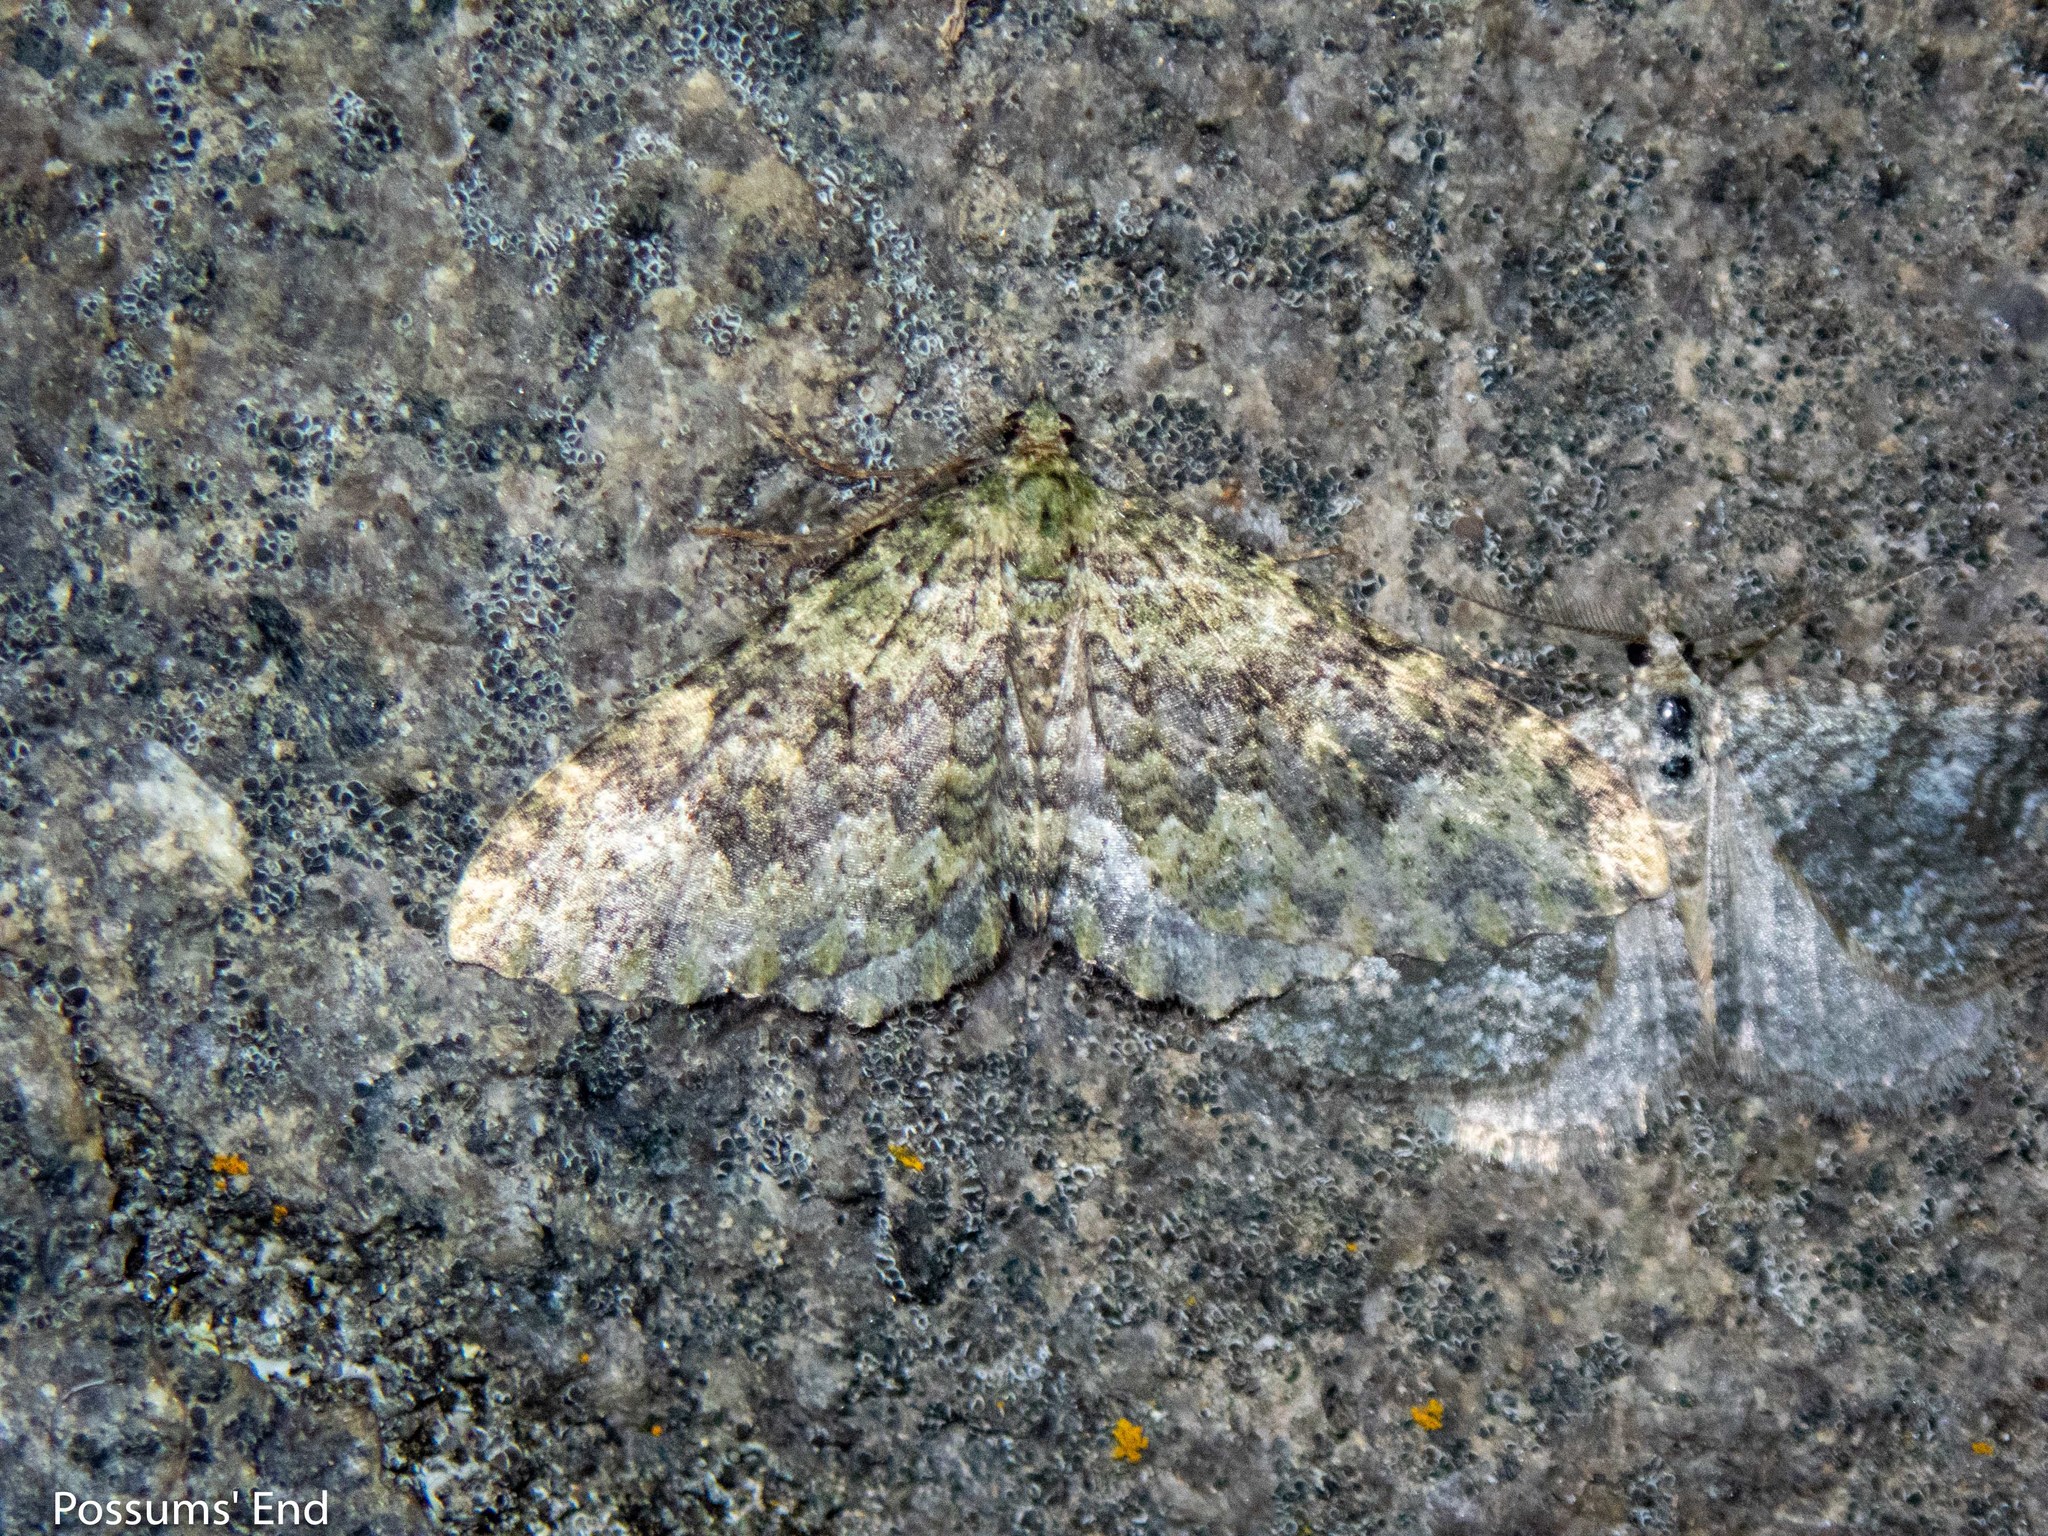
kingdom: Animalia
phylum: Arthropoda
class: Insecta
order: Lepidoptera
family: Geometridae
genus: Austrocidaria
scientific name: Austrocidaria umbrosa
